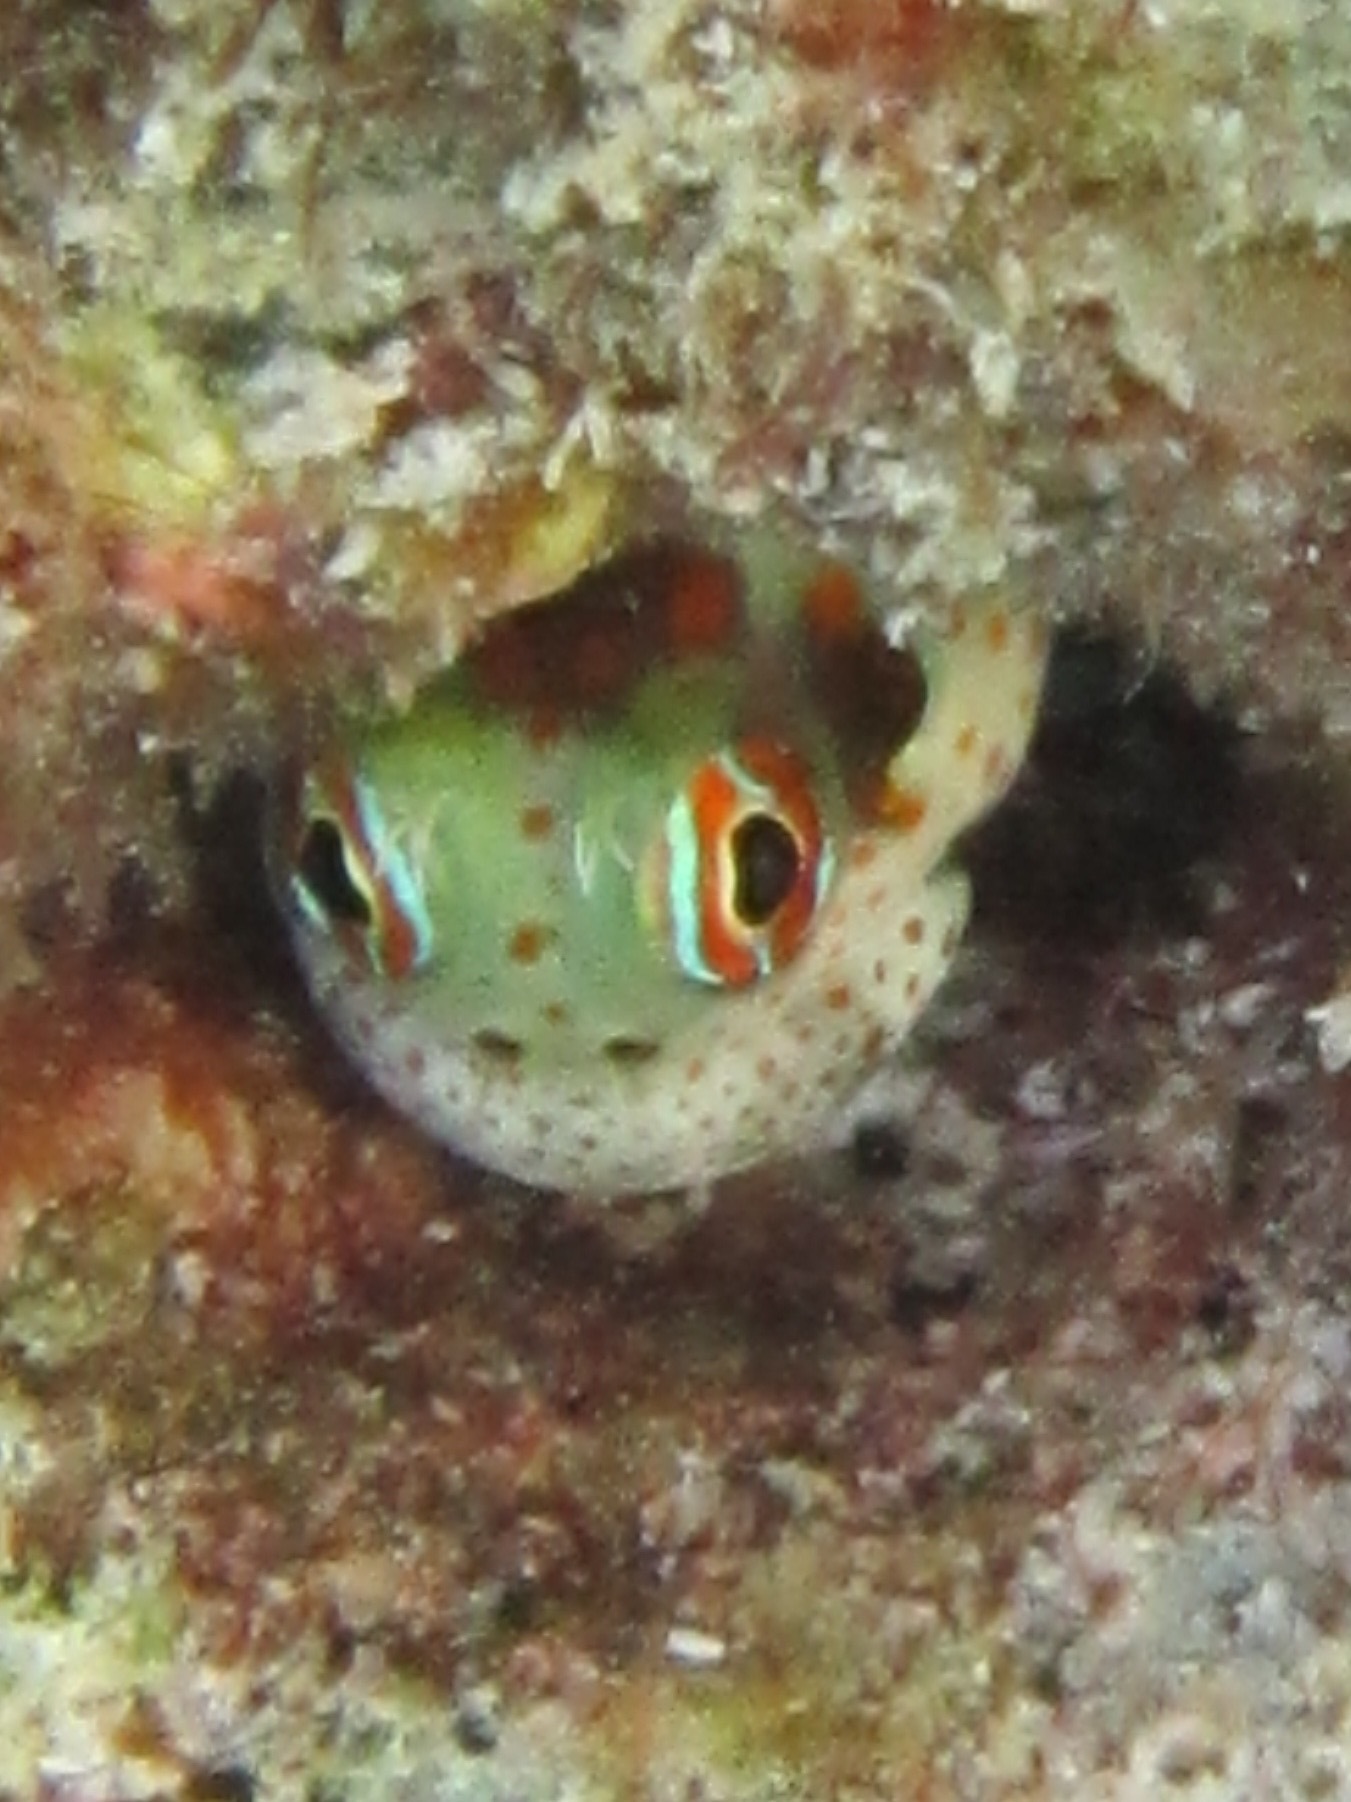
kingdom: Animalia
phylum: Chordata
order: Perciformes
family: Blenniidae
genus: Blenniella
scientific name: Blenniella chrysospilos
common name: Orange-spotted blenny
